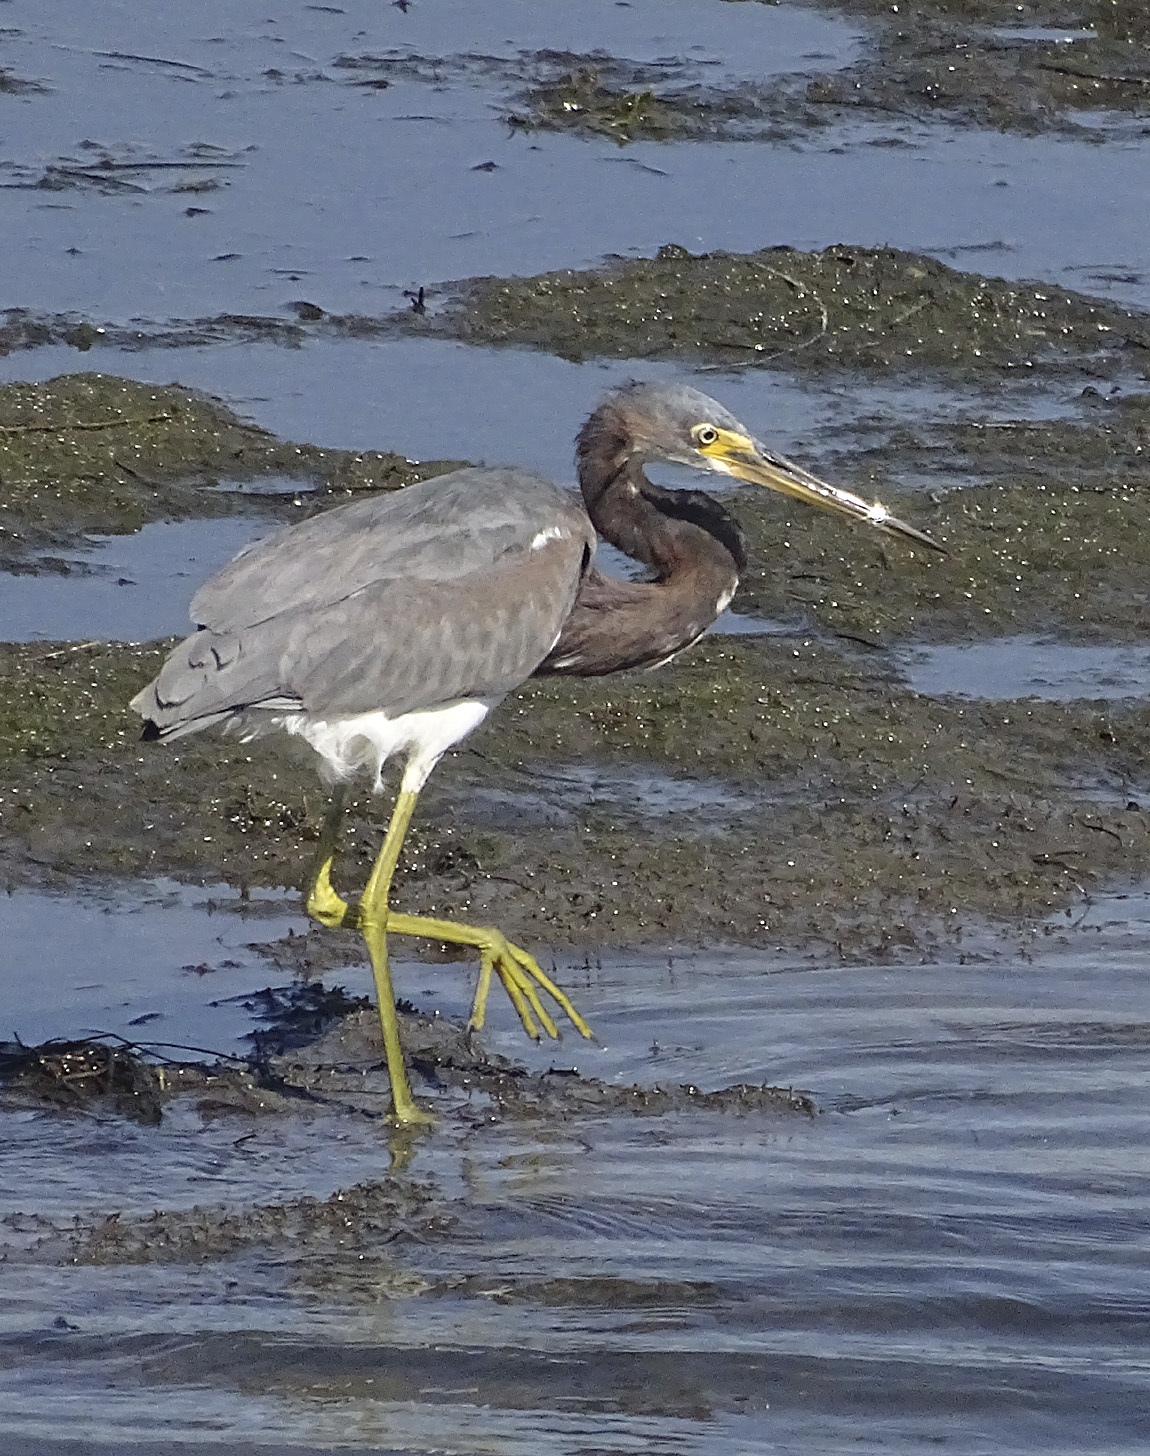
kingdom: Animalia
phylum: Chordata
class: Aves
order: Pelecaniformes
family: Ardeidae
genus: Egretta
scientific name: Egretta tricolor
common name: Tricolored heron
